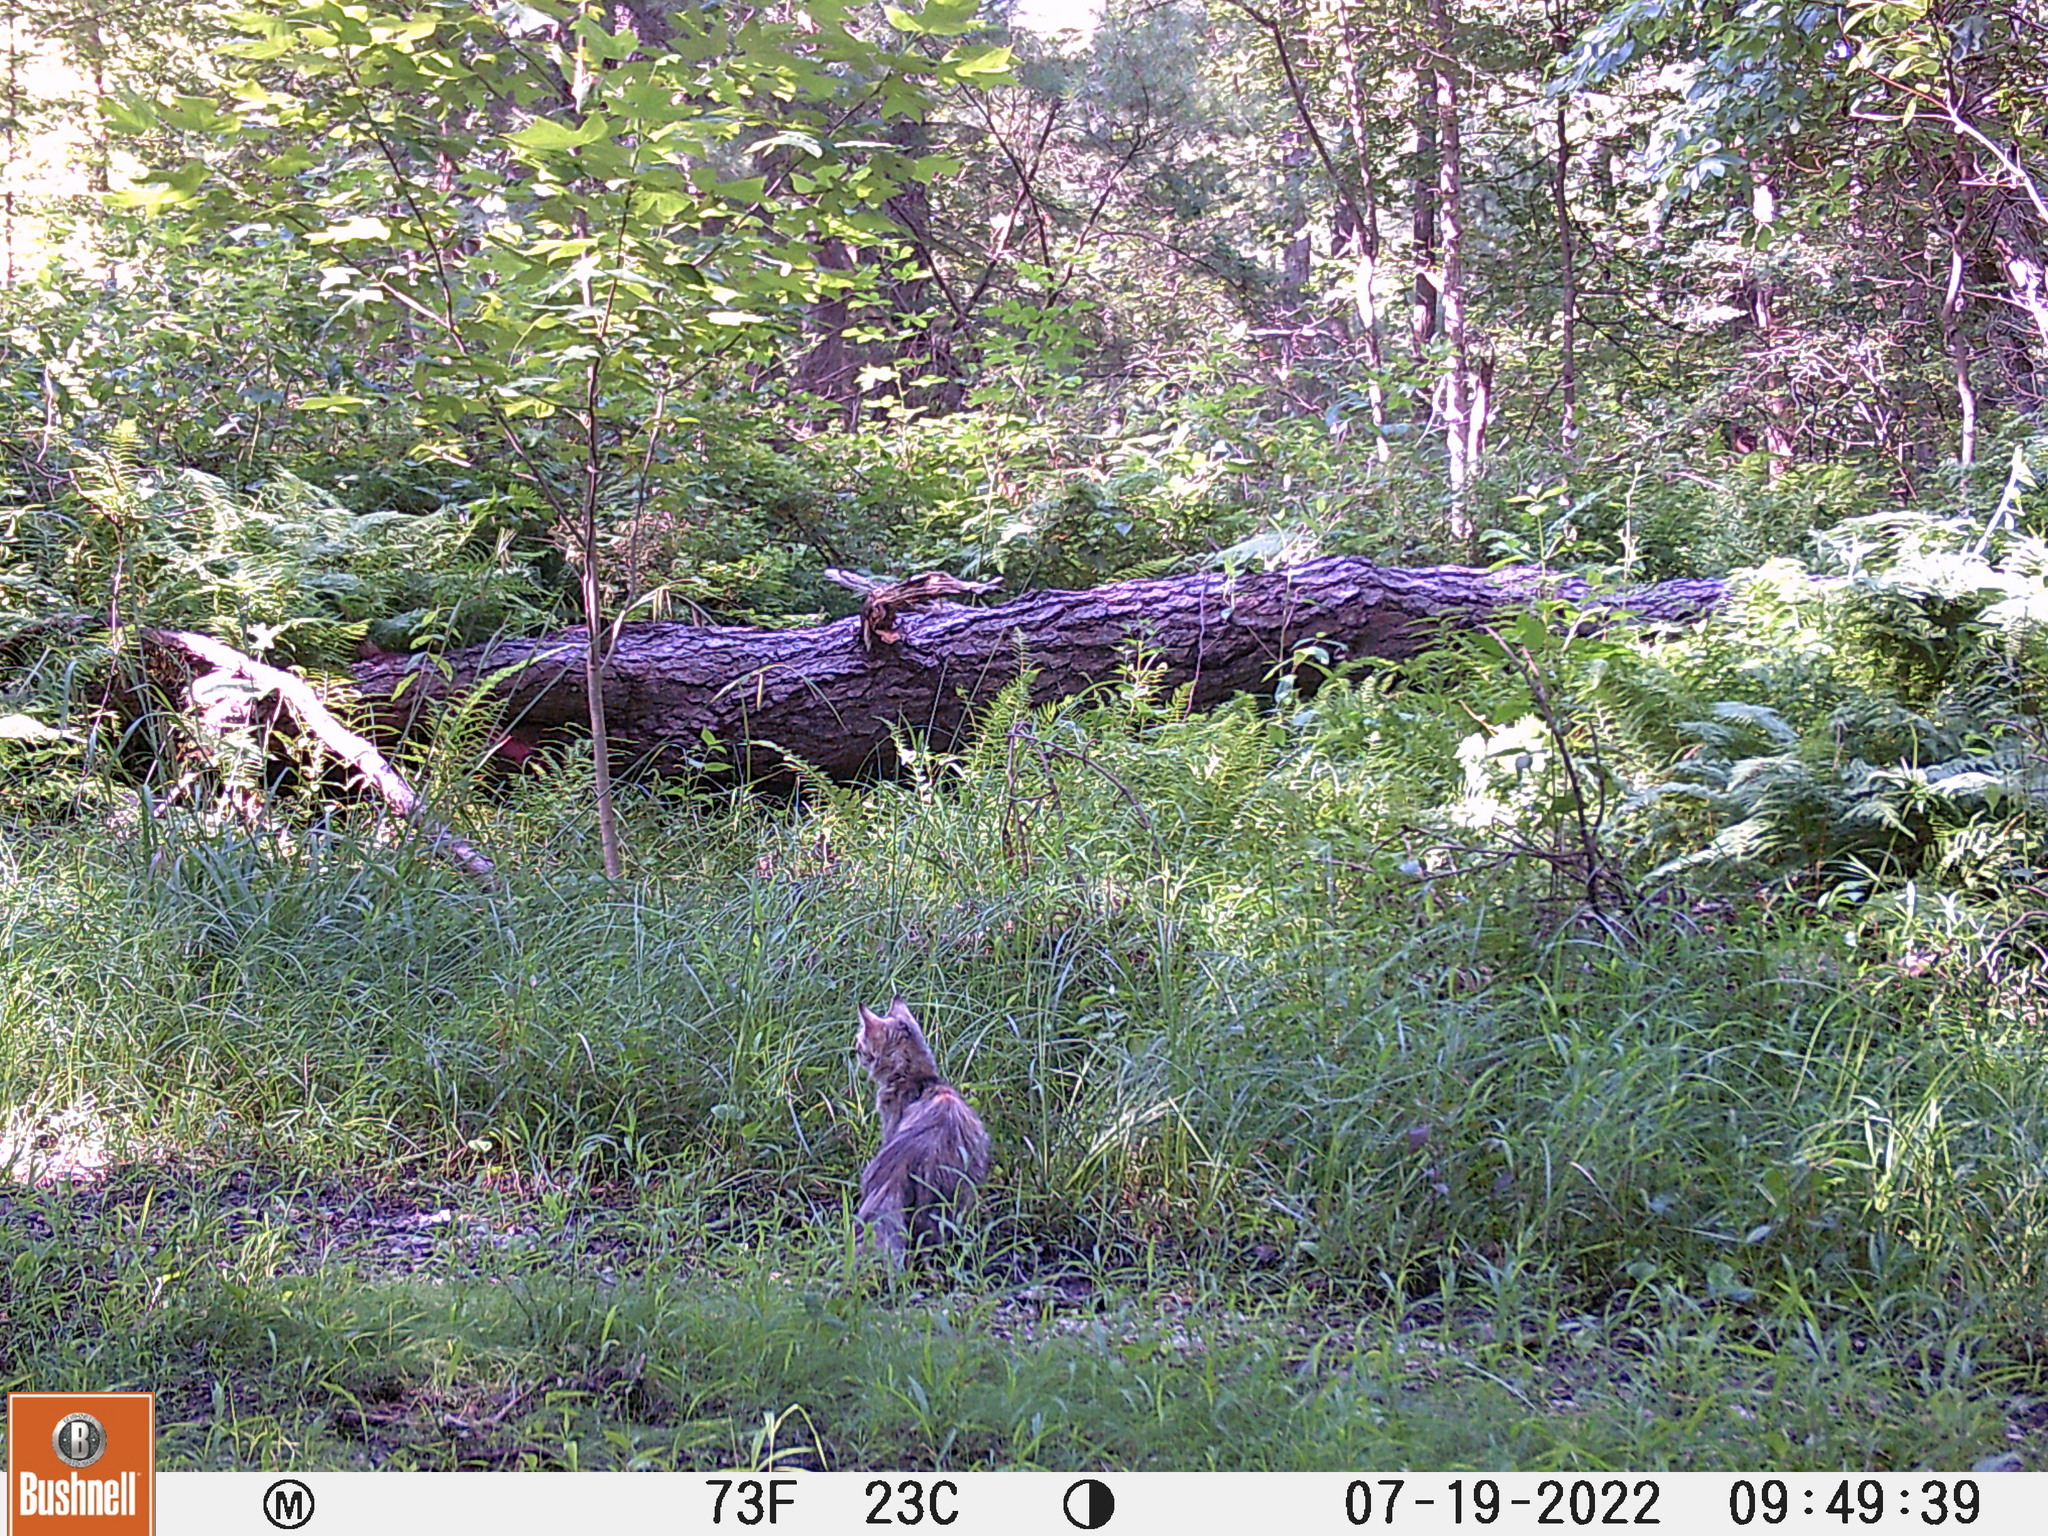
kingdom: Animalia
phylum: Chordata
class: Mammalia
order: Carnivora
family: Felidae
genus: Felis
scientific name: Felis catus
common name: Domestic cat
